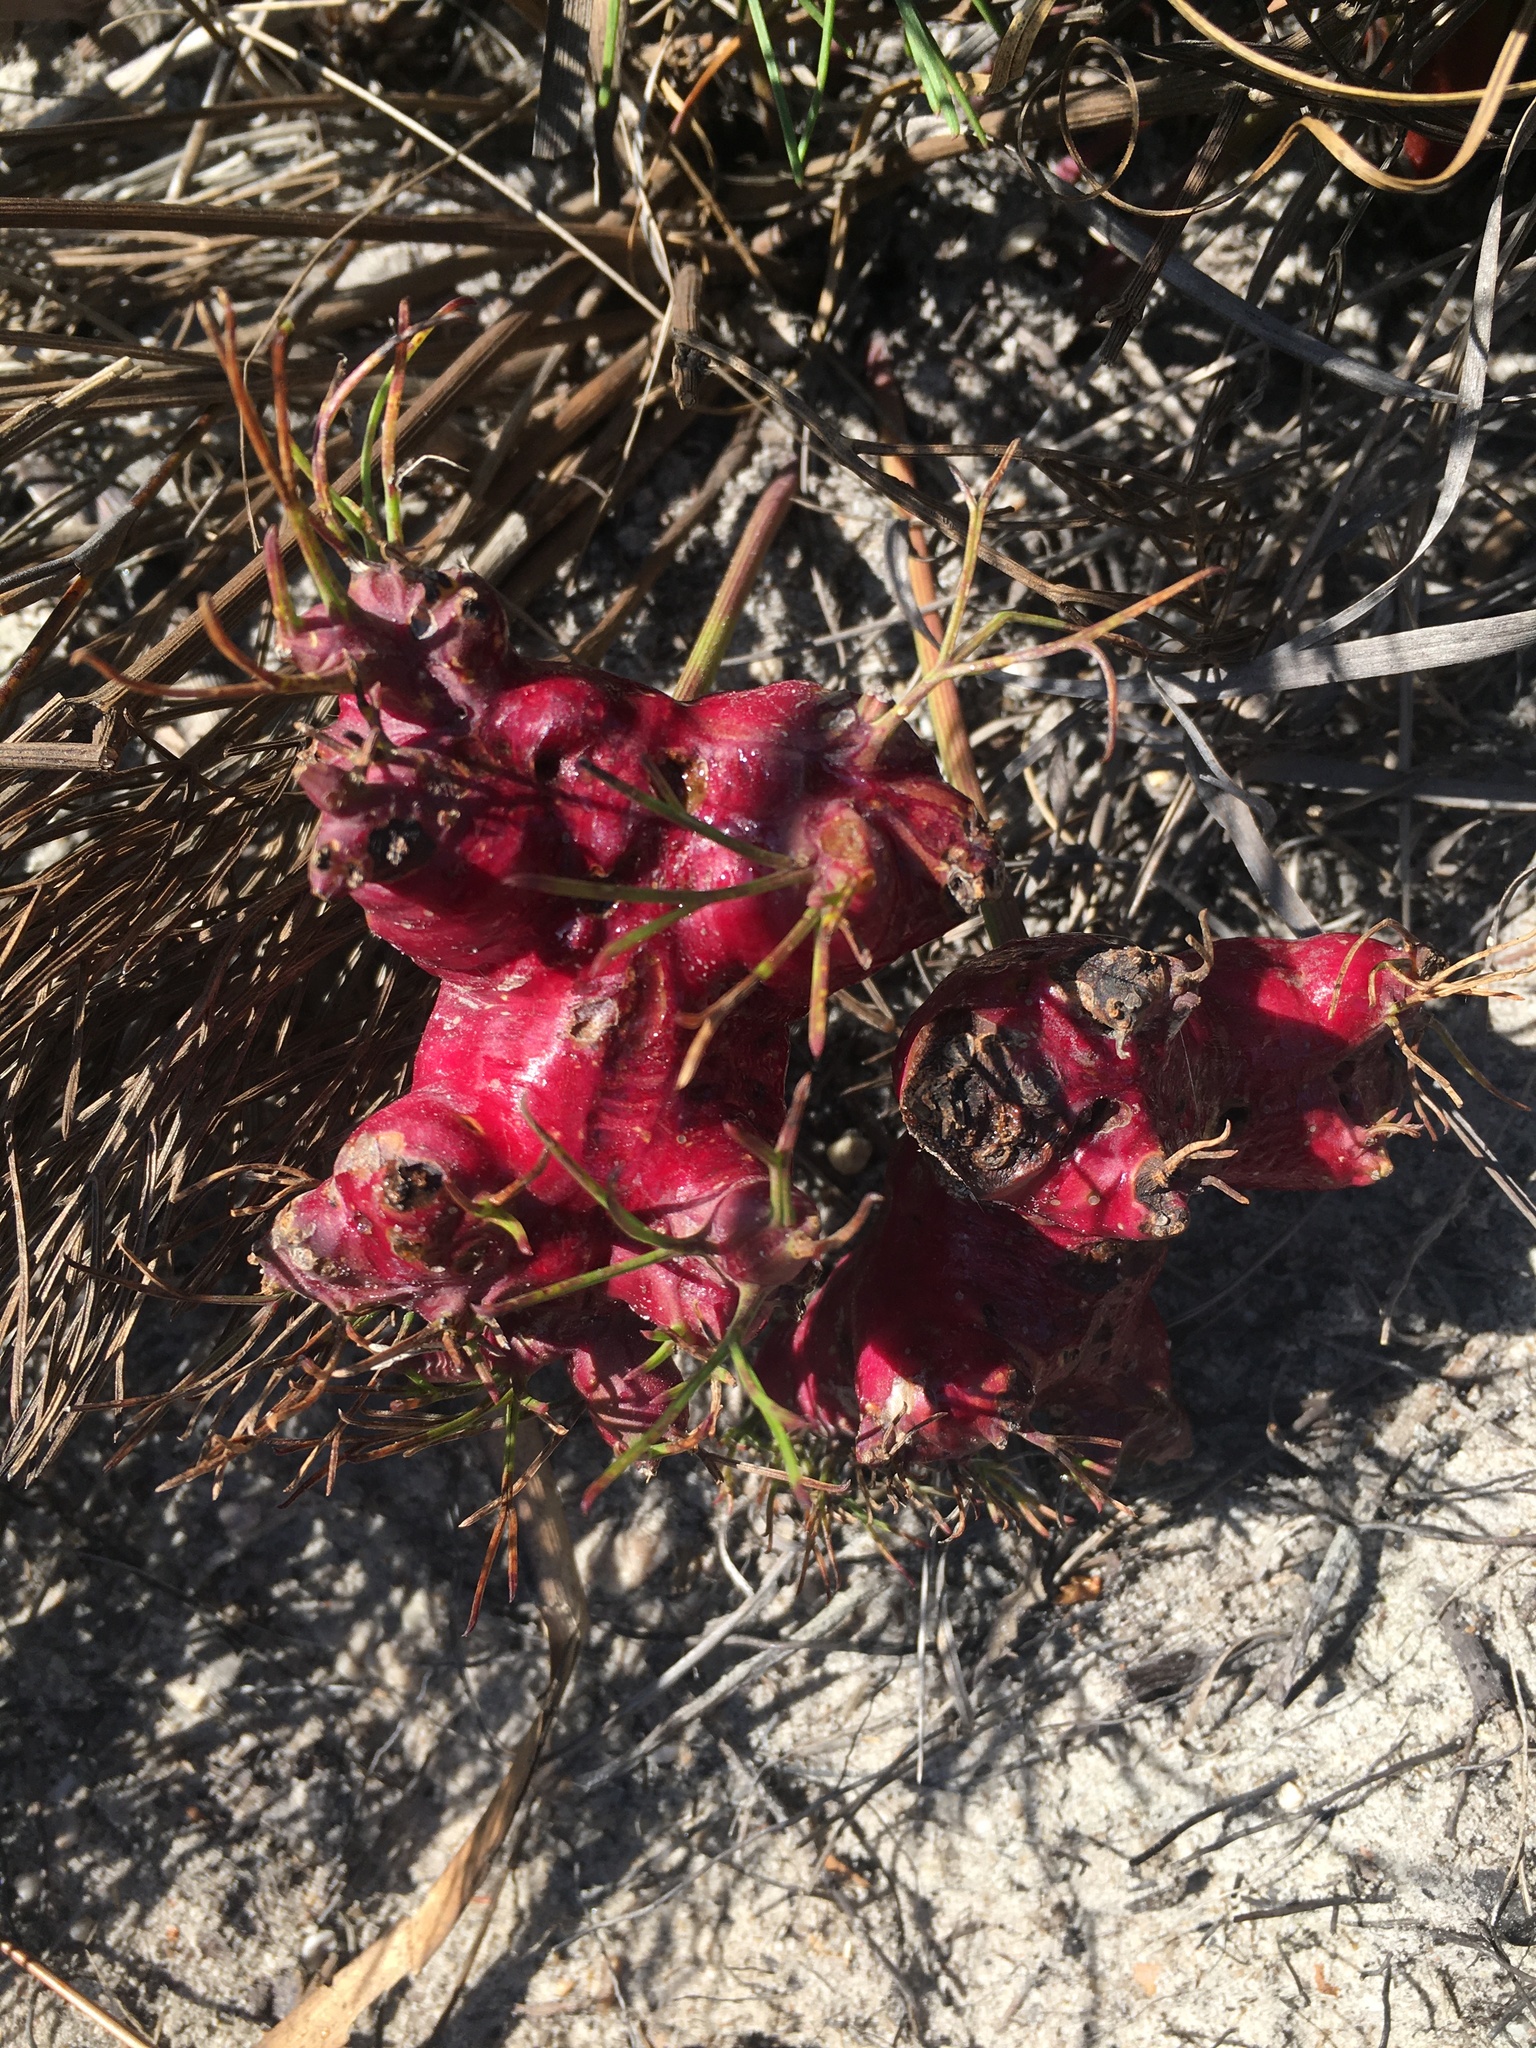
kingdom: Plantae
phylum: Tracheophyta
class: Magnoliopsida
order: Apiales
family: Apiaceae
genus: Nanobubon
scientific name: Nanobubon strictum
